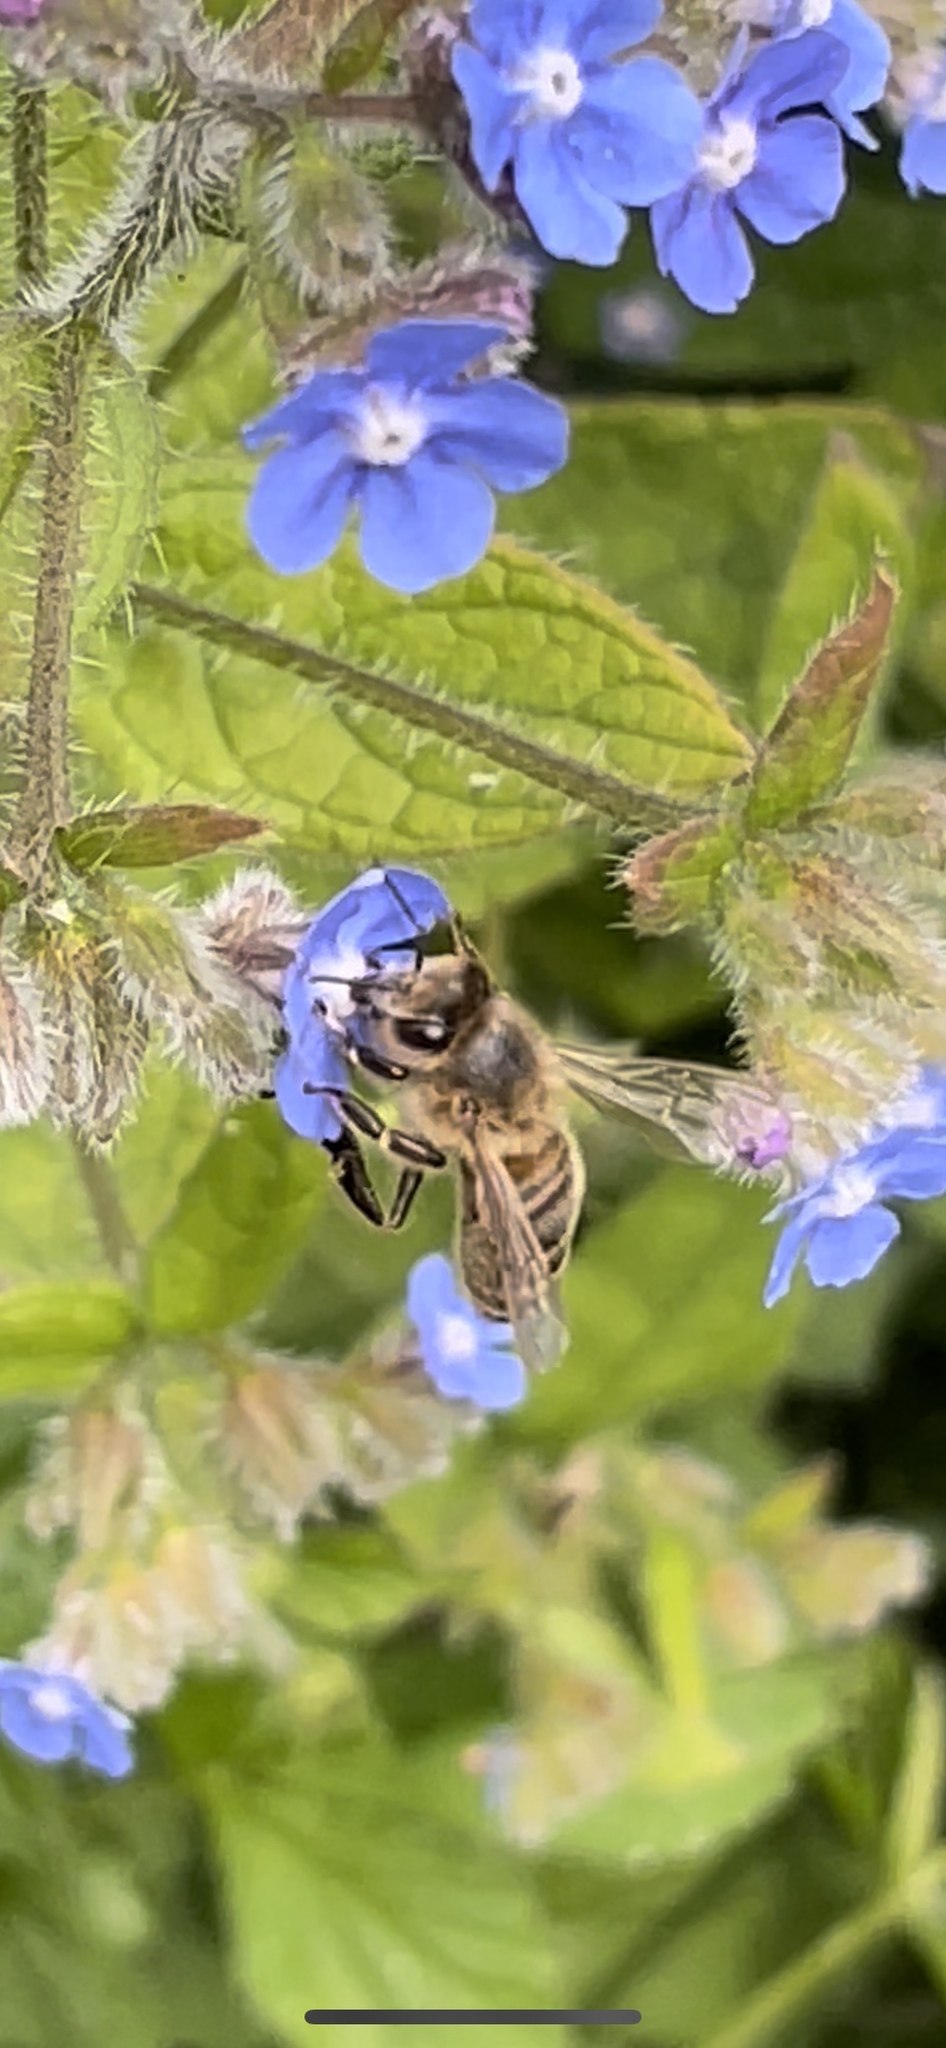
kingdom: Animalia
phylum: Arthropoda
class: Insecta
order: Hymenoptera
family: Apidae
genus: Apis
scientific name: Apis mellifera
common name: Honey bee
